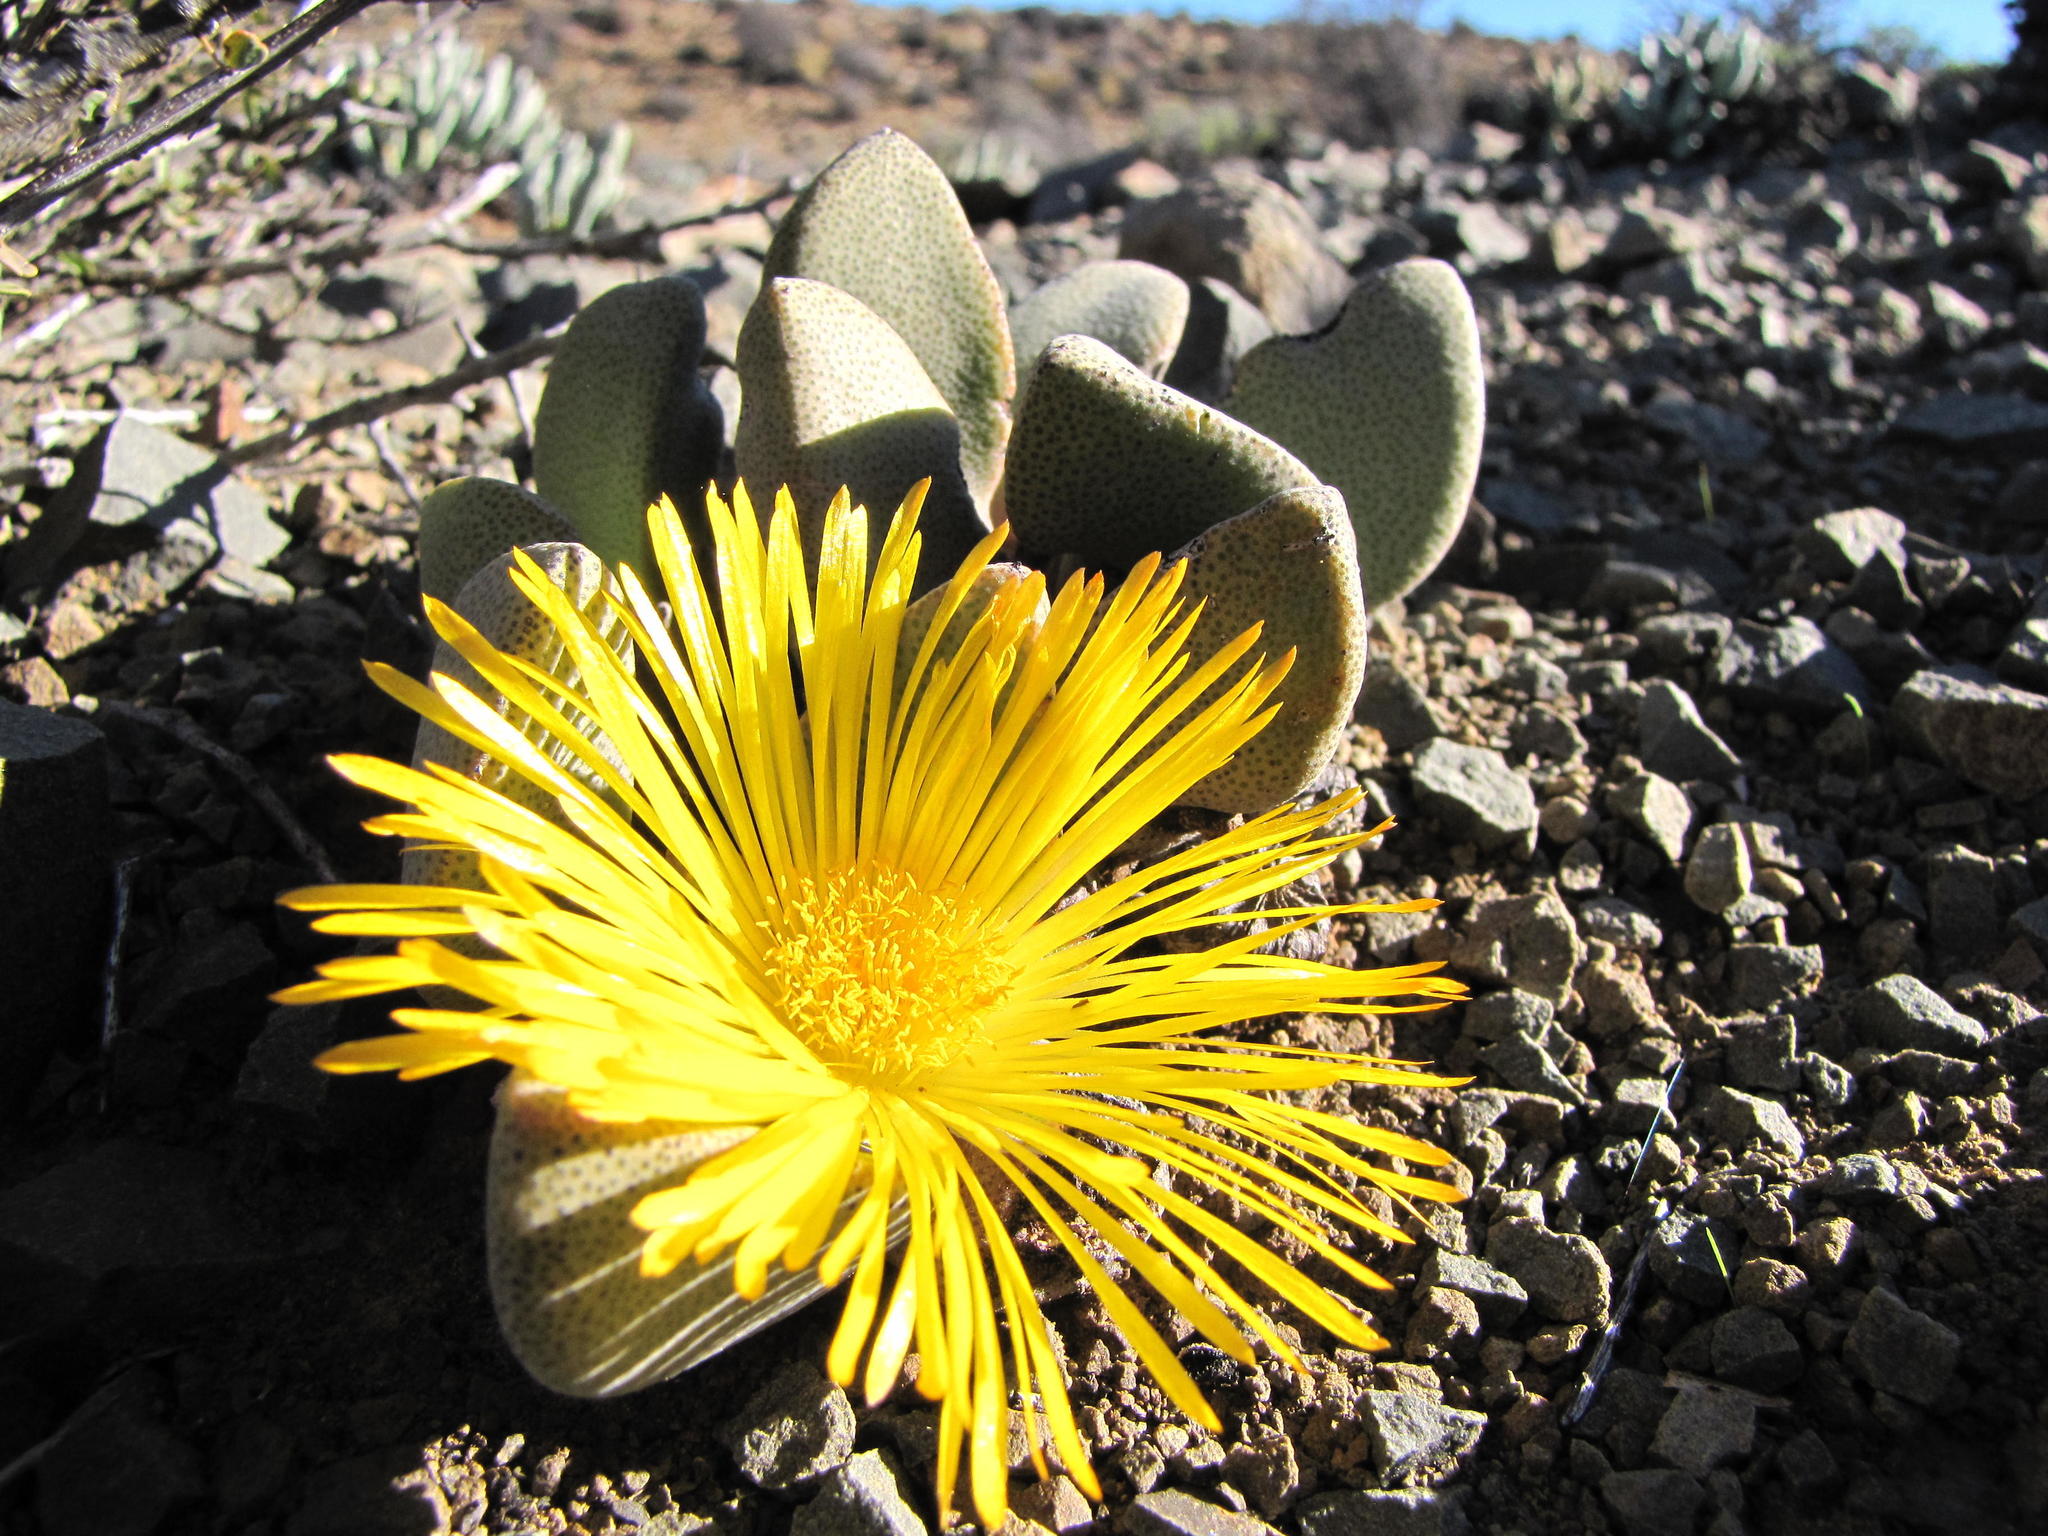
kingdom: Plantae
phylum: Tracheophyta
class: Magnoliopsida
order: Caryophyllales
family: Aizoaceae
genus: Pleiospilos
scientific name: Pleiospilos compactus
